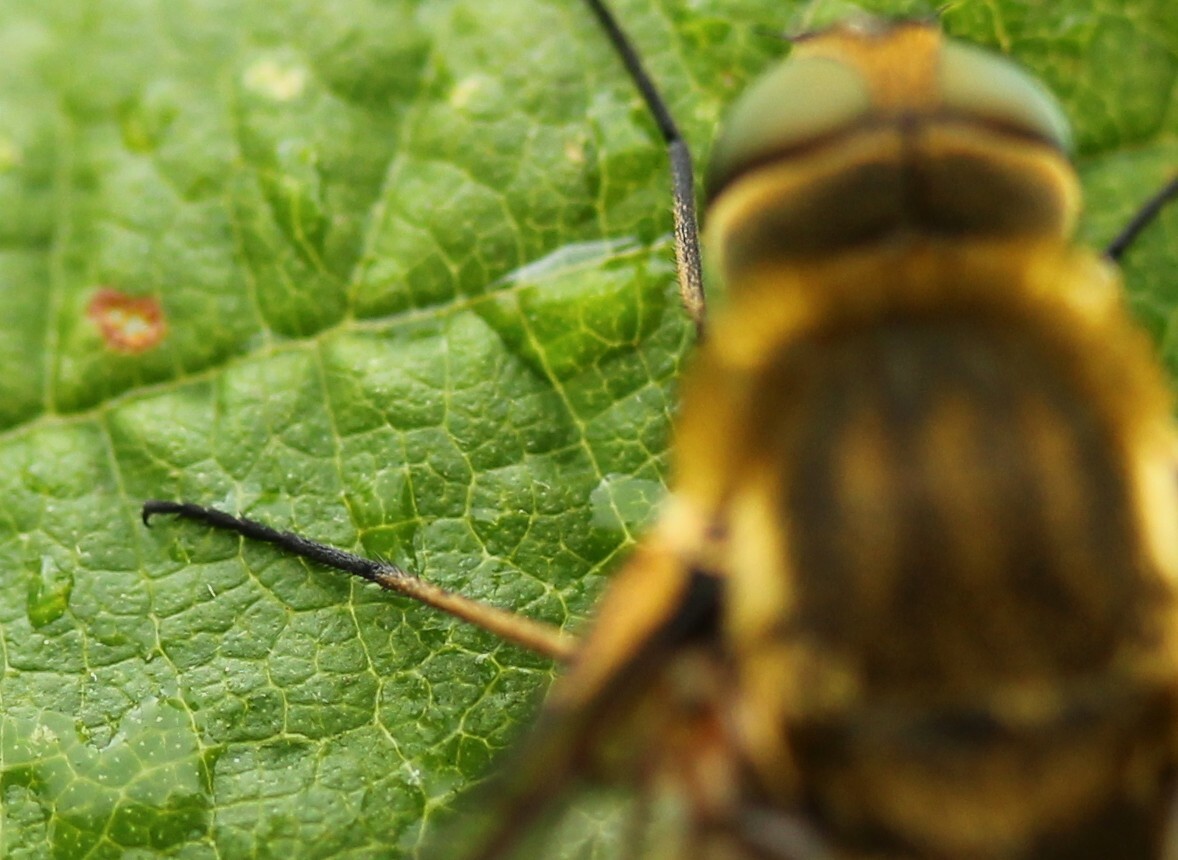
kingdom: Animalia
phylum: Arthropoda
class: Insecta
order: Diptera
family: Bombyliidae
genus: Villa
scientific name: Villa hottentotta
